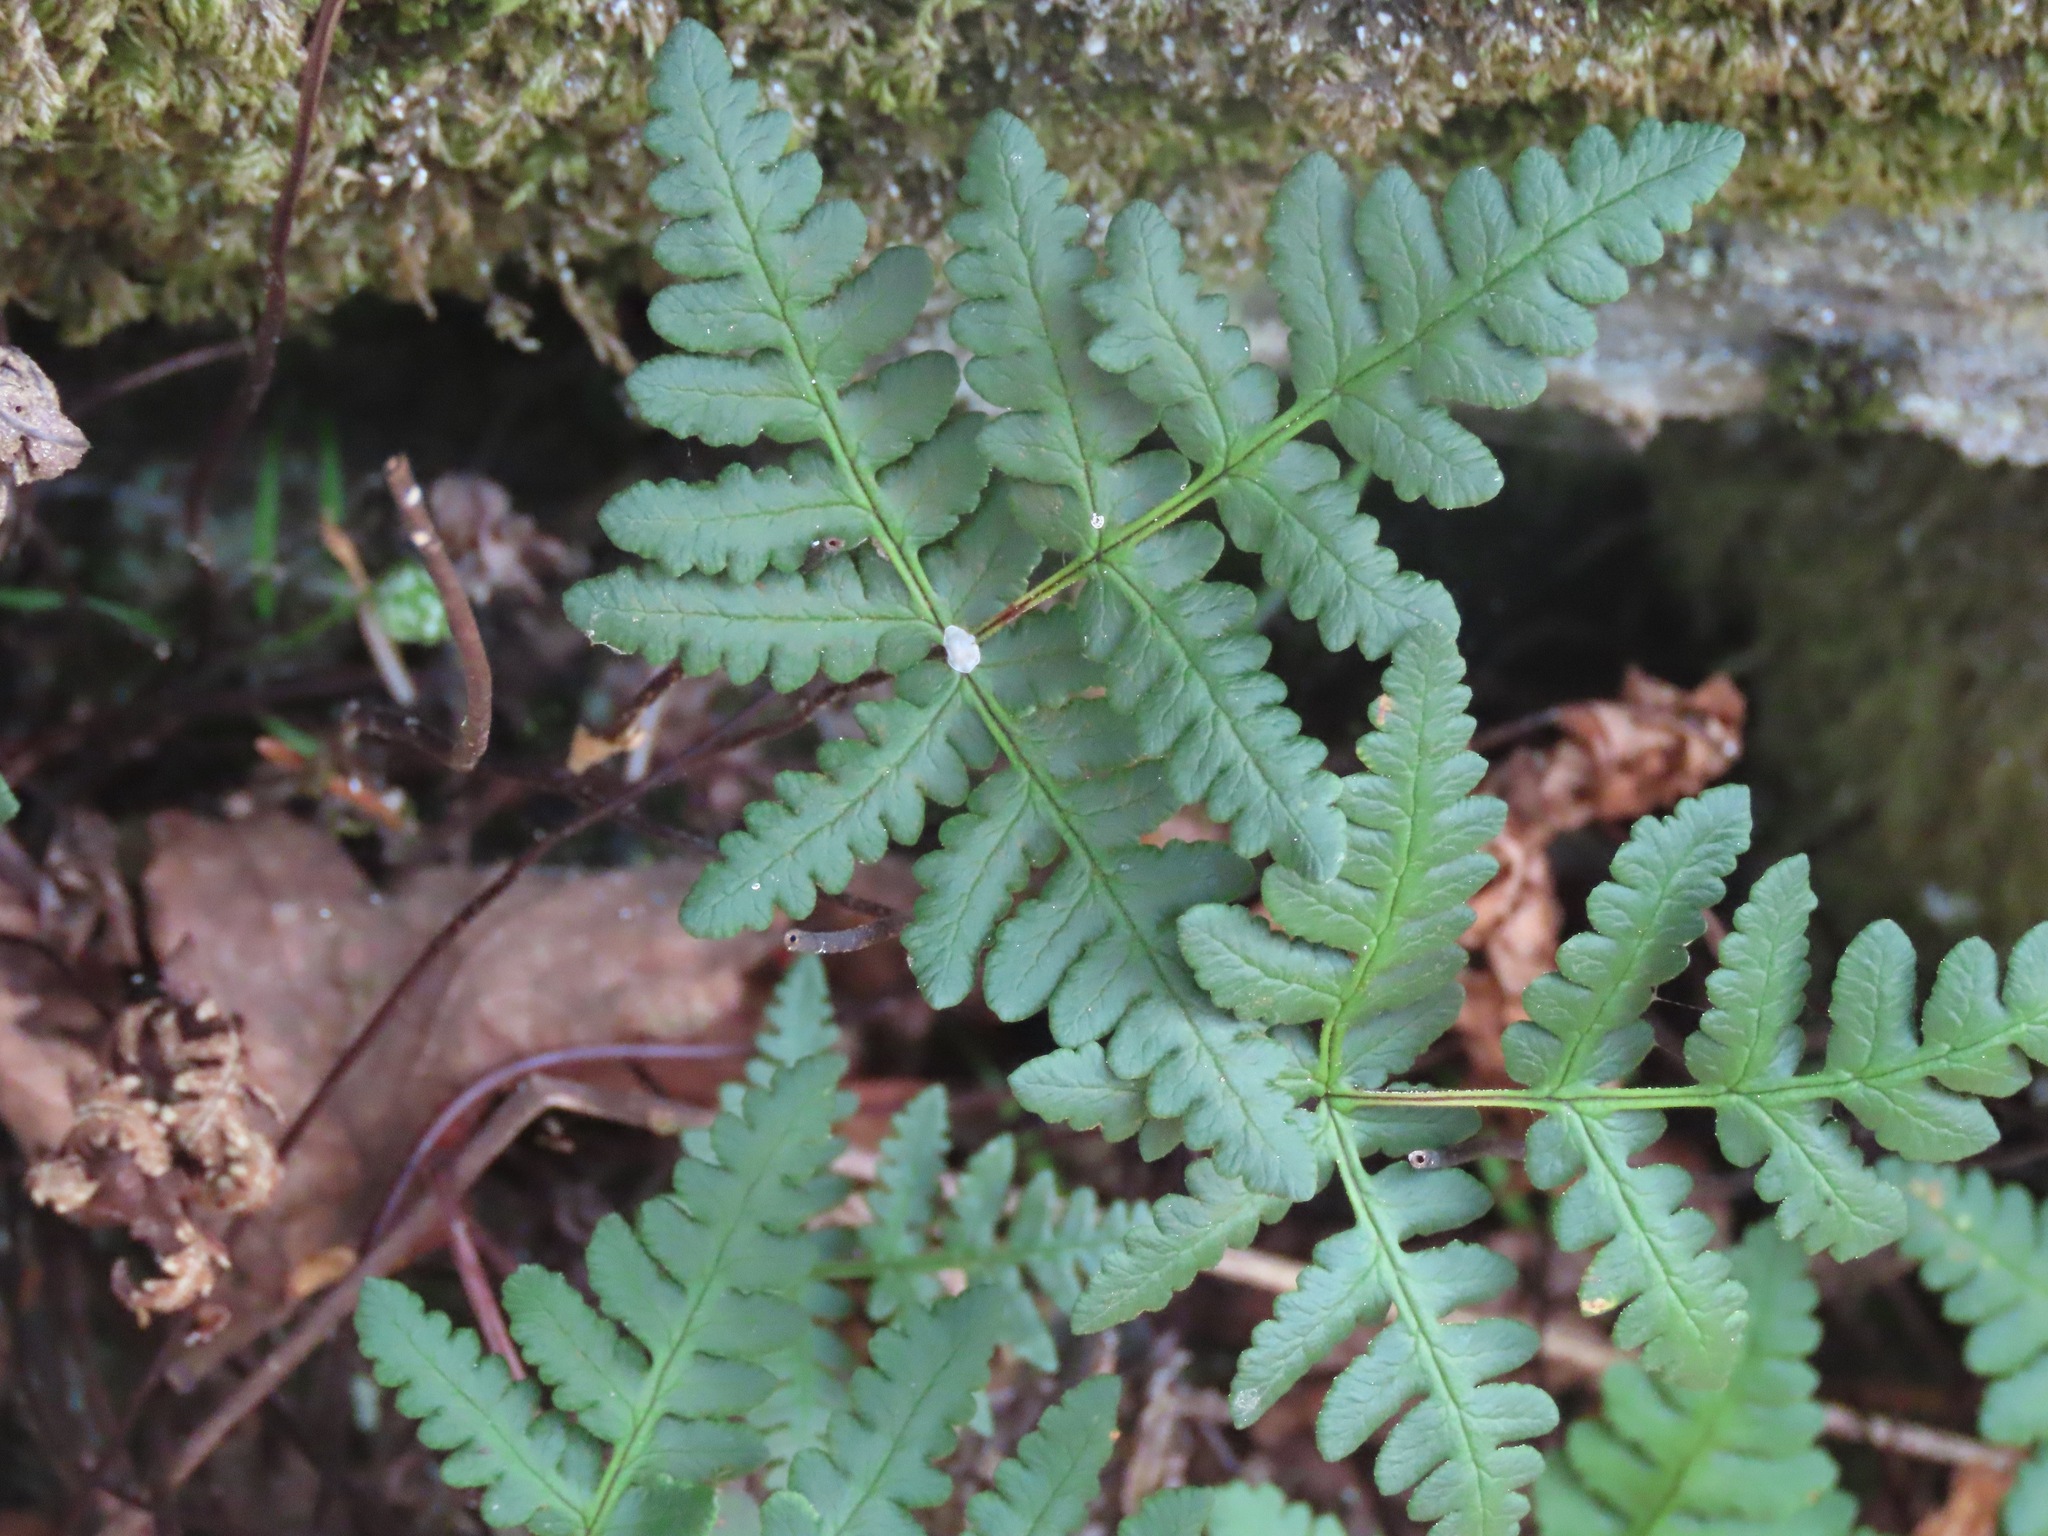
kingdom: Plantae
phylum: Tracheophyta
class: Polypodiopsida
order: Polypodiales
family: Pteridaceae
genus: Pentagramma
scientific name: Pentagramma triangularis
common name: Gold fern
